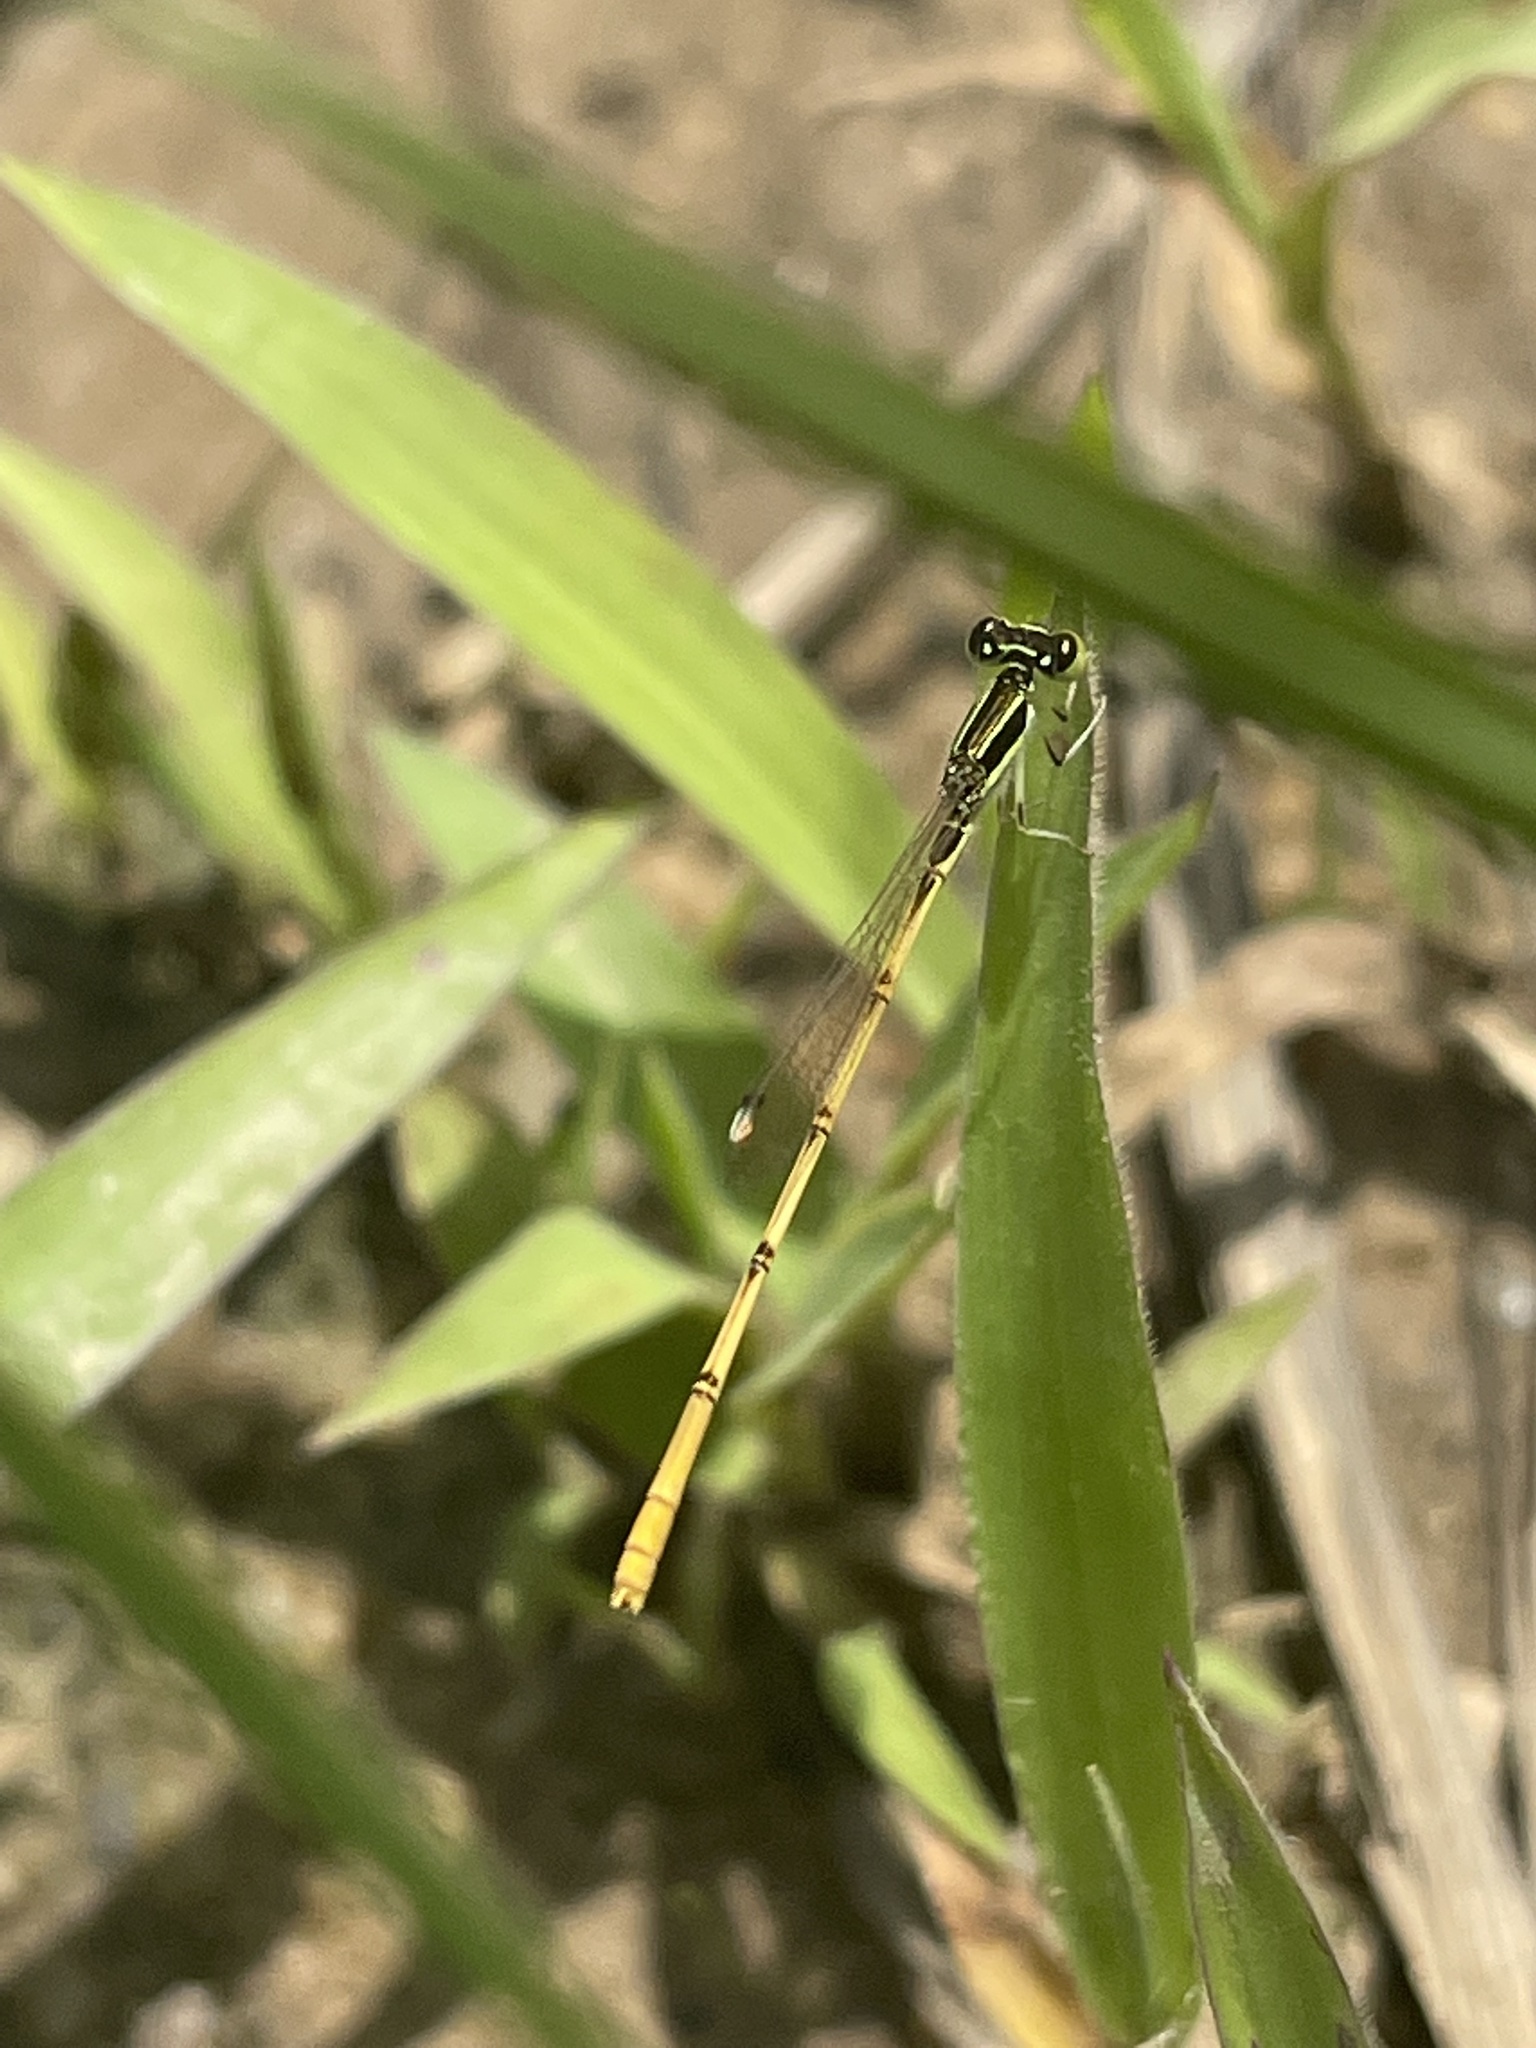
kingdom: Animalia
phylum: Arthropoda
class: Insecta
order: Odonata
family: Coenagrionidae
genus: Ischnura
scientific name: Ischnura hastata
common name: Citrine forktail
